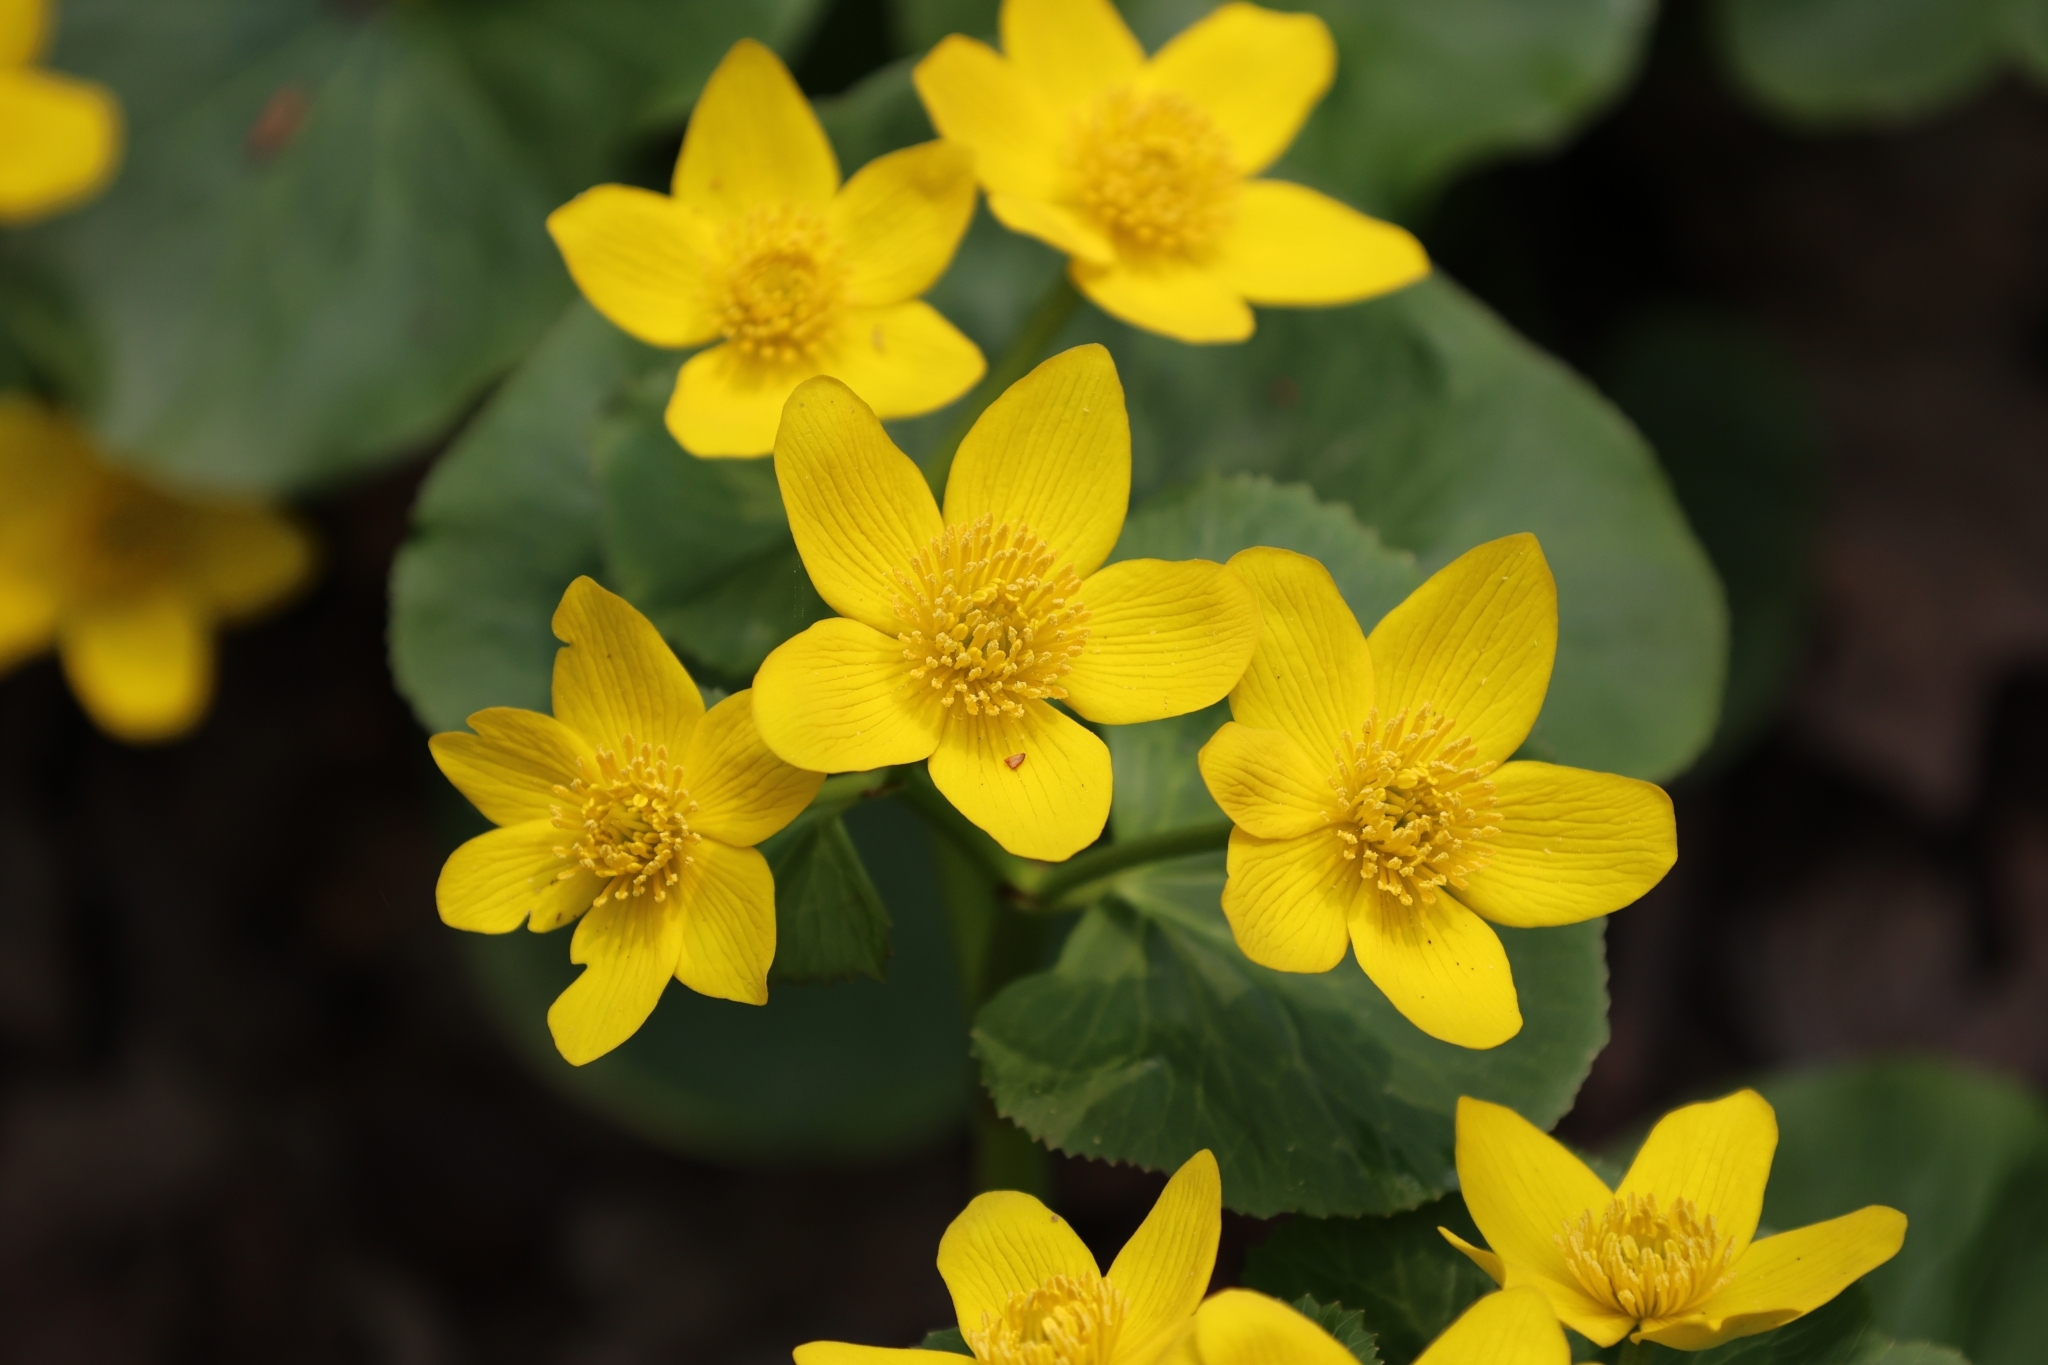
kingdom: Plantae
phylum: Tracheophyta
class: Magnoliopsida
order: Ranunculales
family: Ranunculaceae
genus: Caltha
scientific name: Caltha palustris
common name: Marsh marigold
